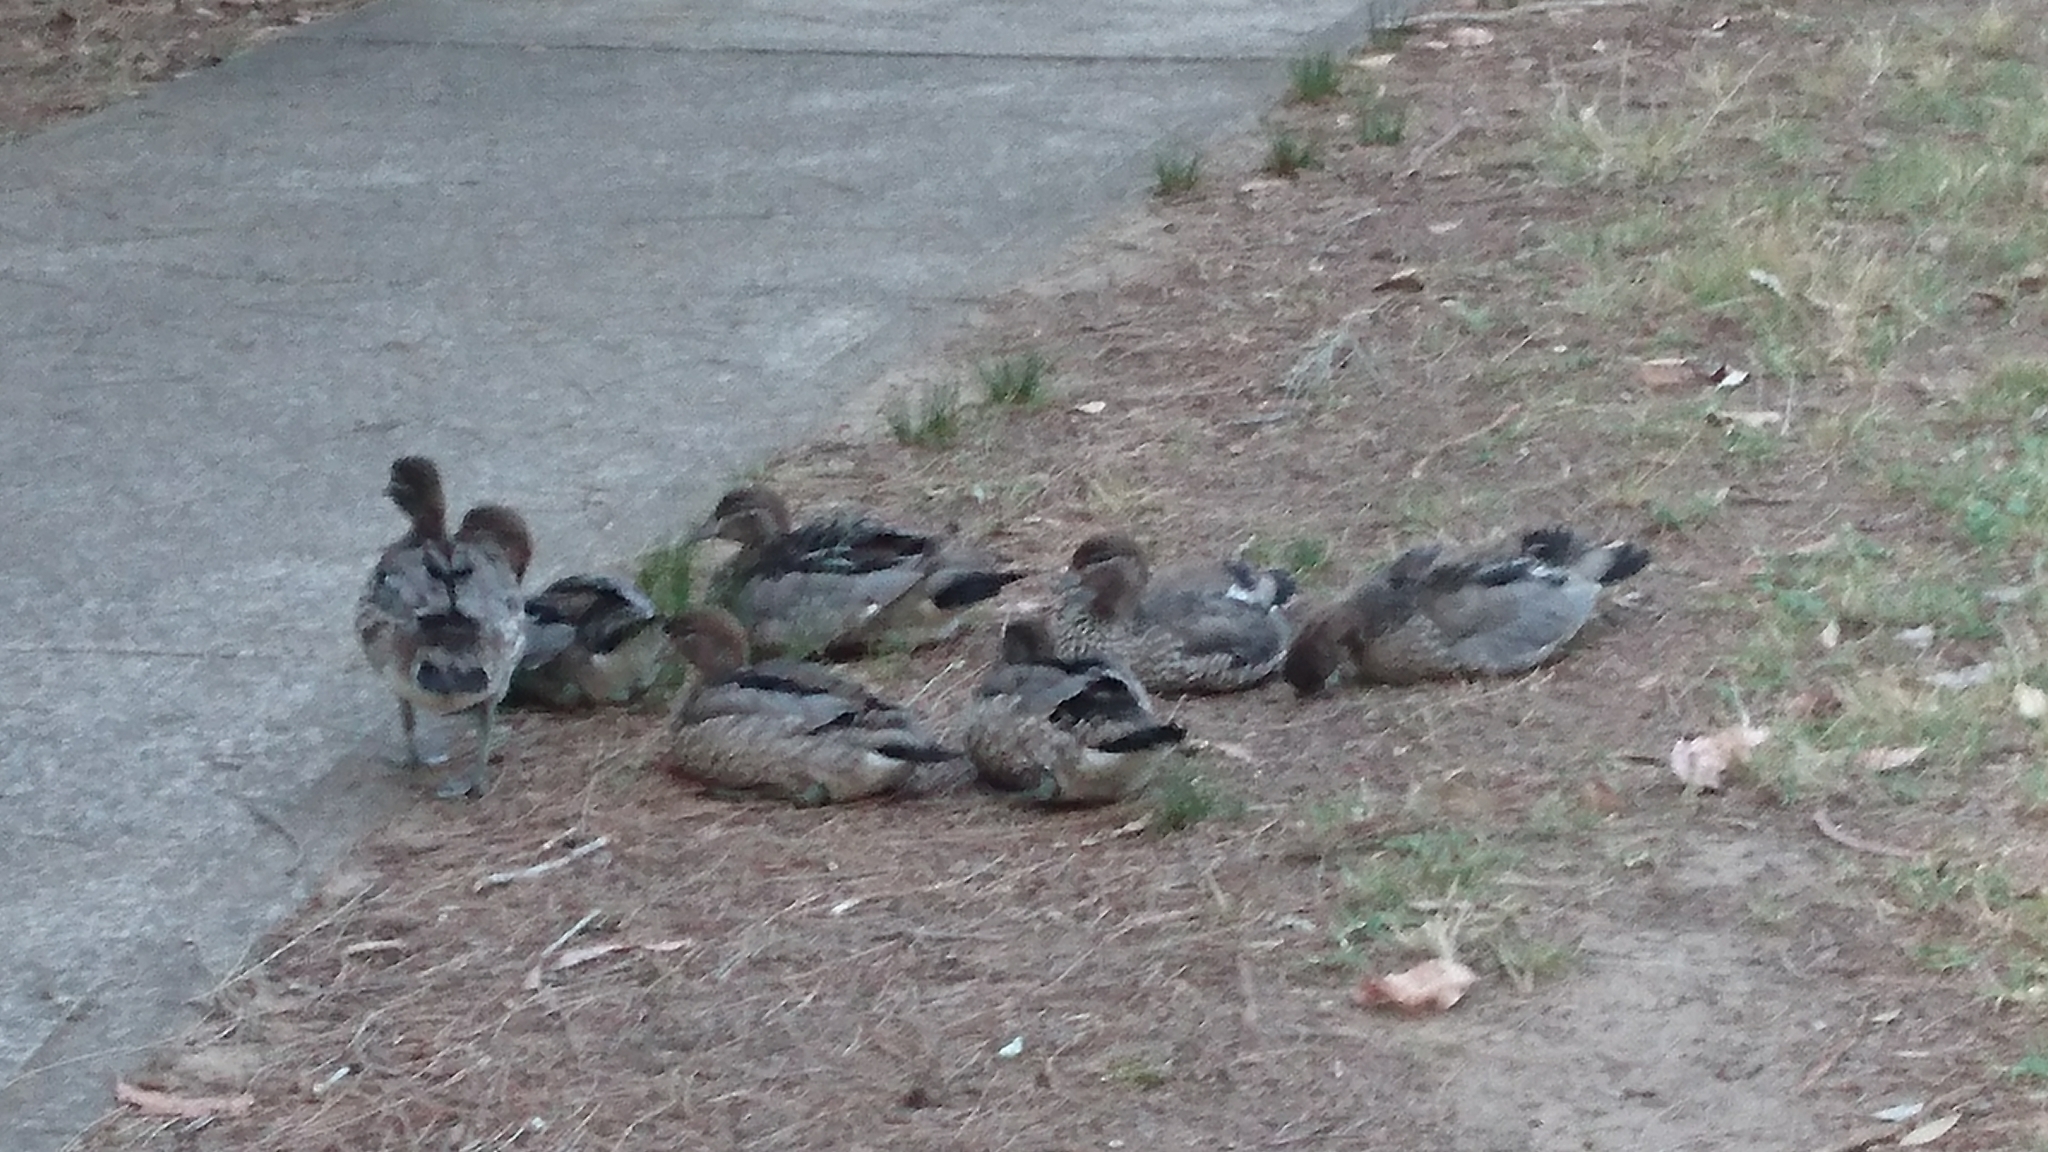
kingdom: Animalia
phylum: Chordata
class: Aves
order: Anseriformes
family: Anatidae
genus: Chenonetta
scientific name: Chenonetta jubata
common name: Maned duck
